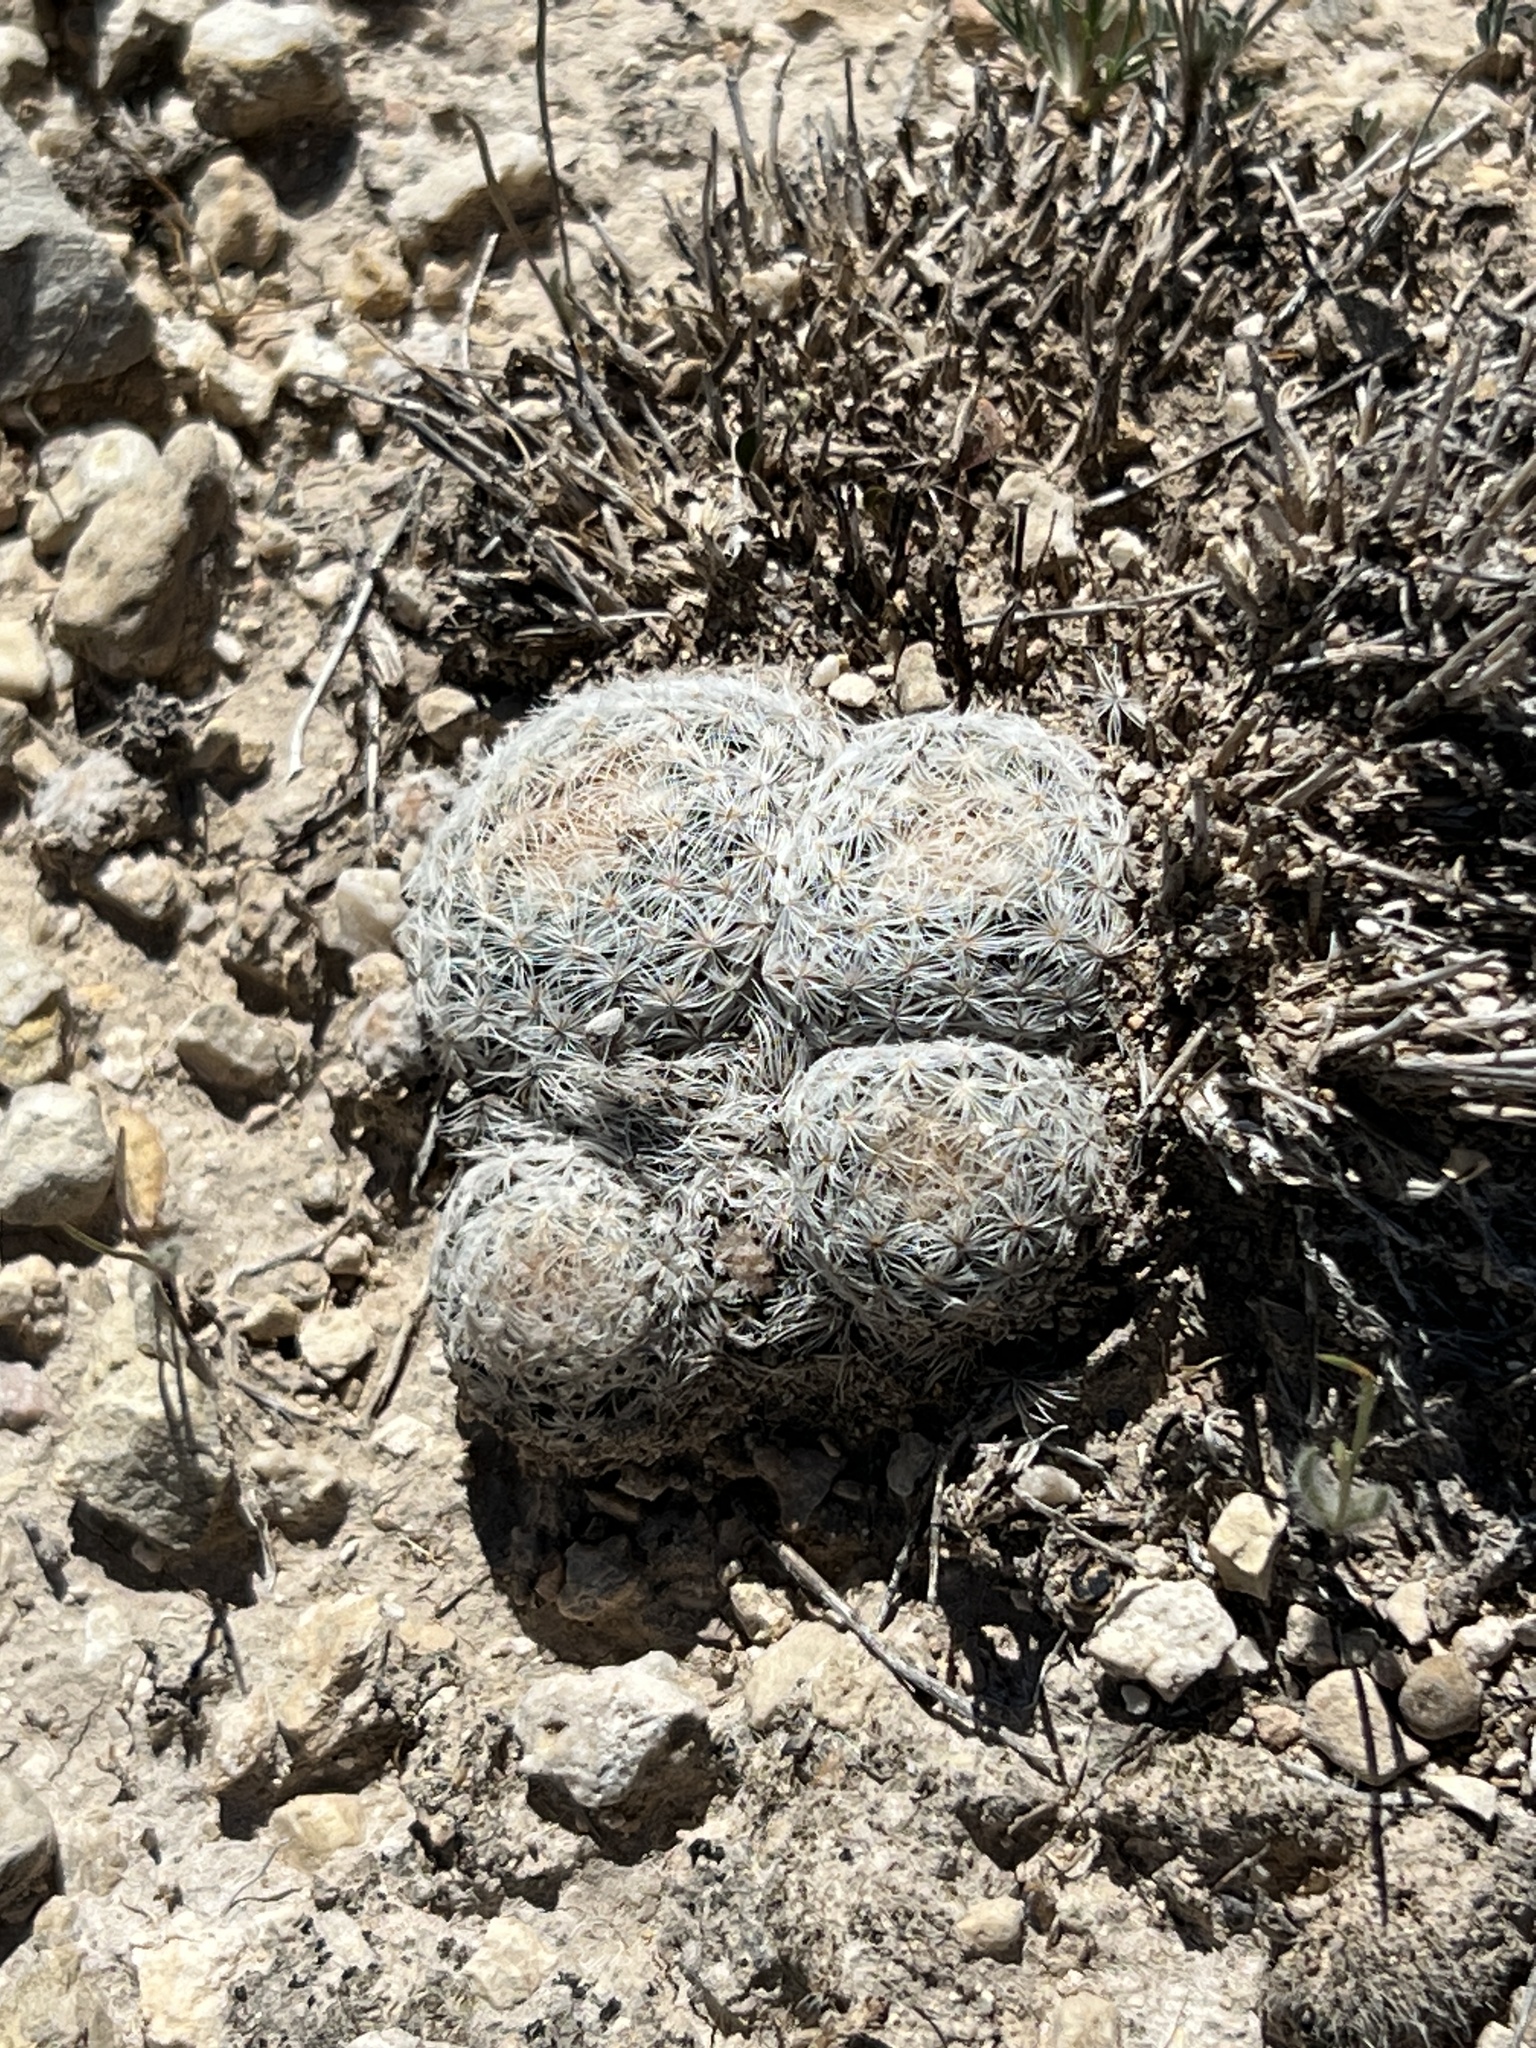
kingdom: Plantae
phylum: Tracheophyta
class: Magnoliopsida
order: Caryophyllales
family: Cactaceae
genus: Mammillaria
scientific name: Mammillaria lasiacantha
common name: Lace-spine nipple cactus
